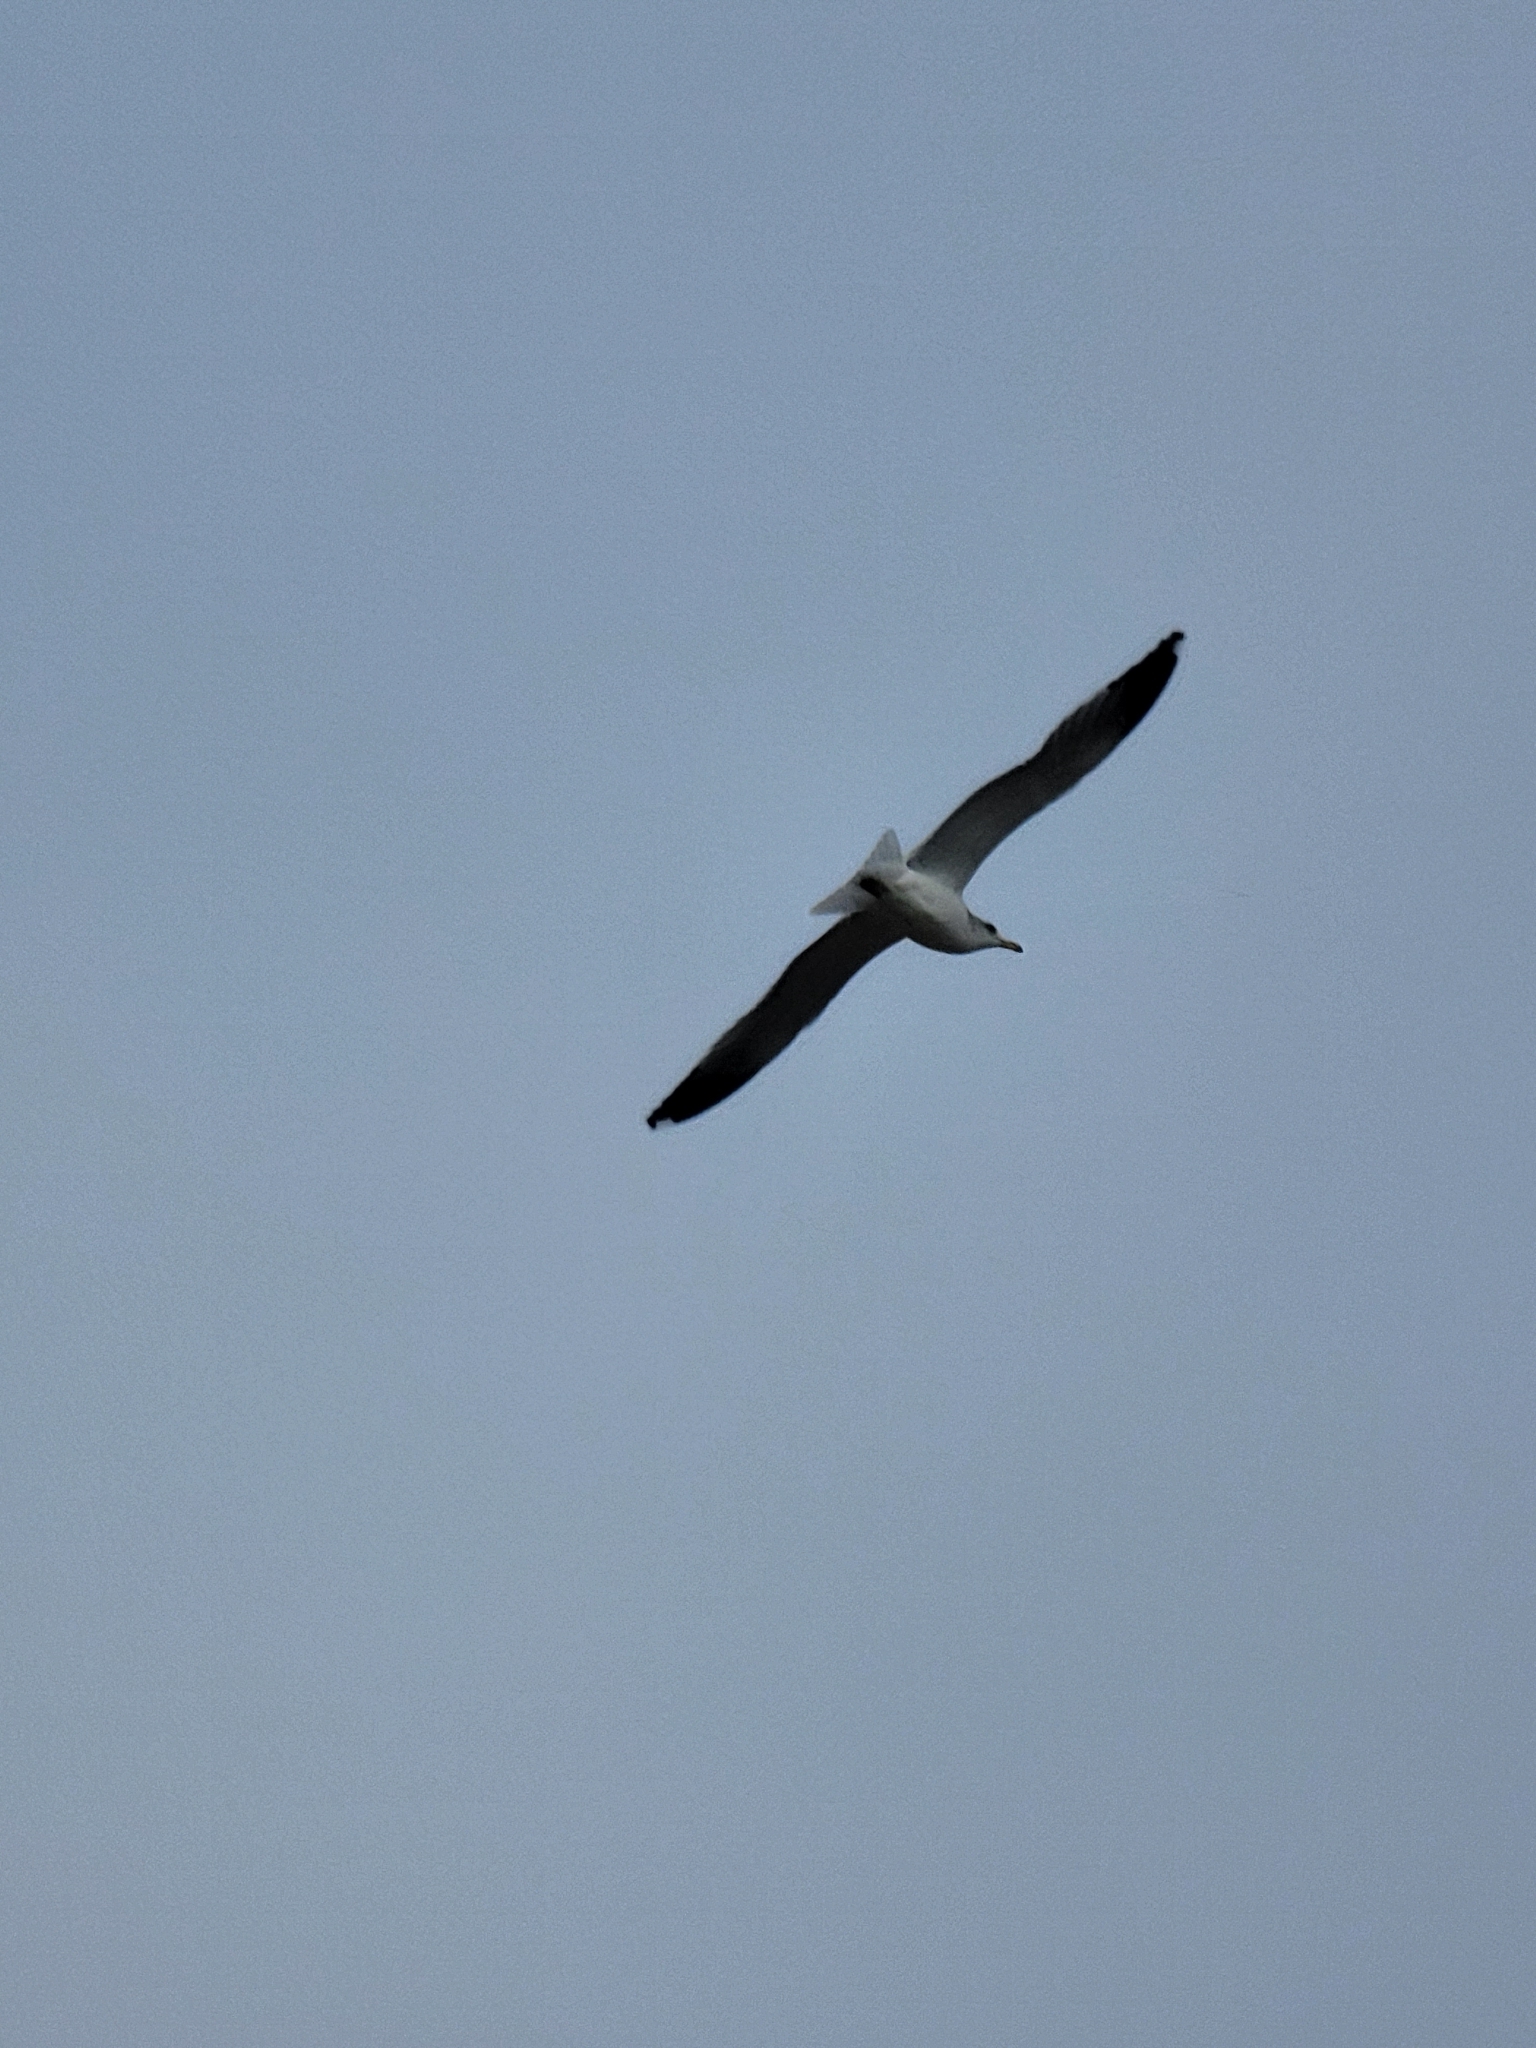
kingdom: Animalia
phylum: Chordata
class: Aves
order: Charadriiformes
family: Laridae
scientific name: Laridae
